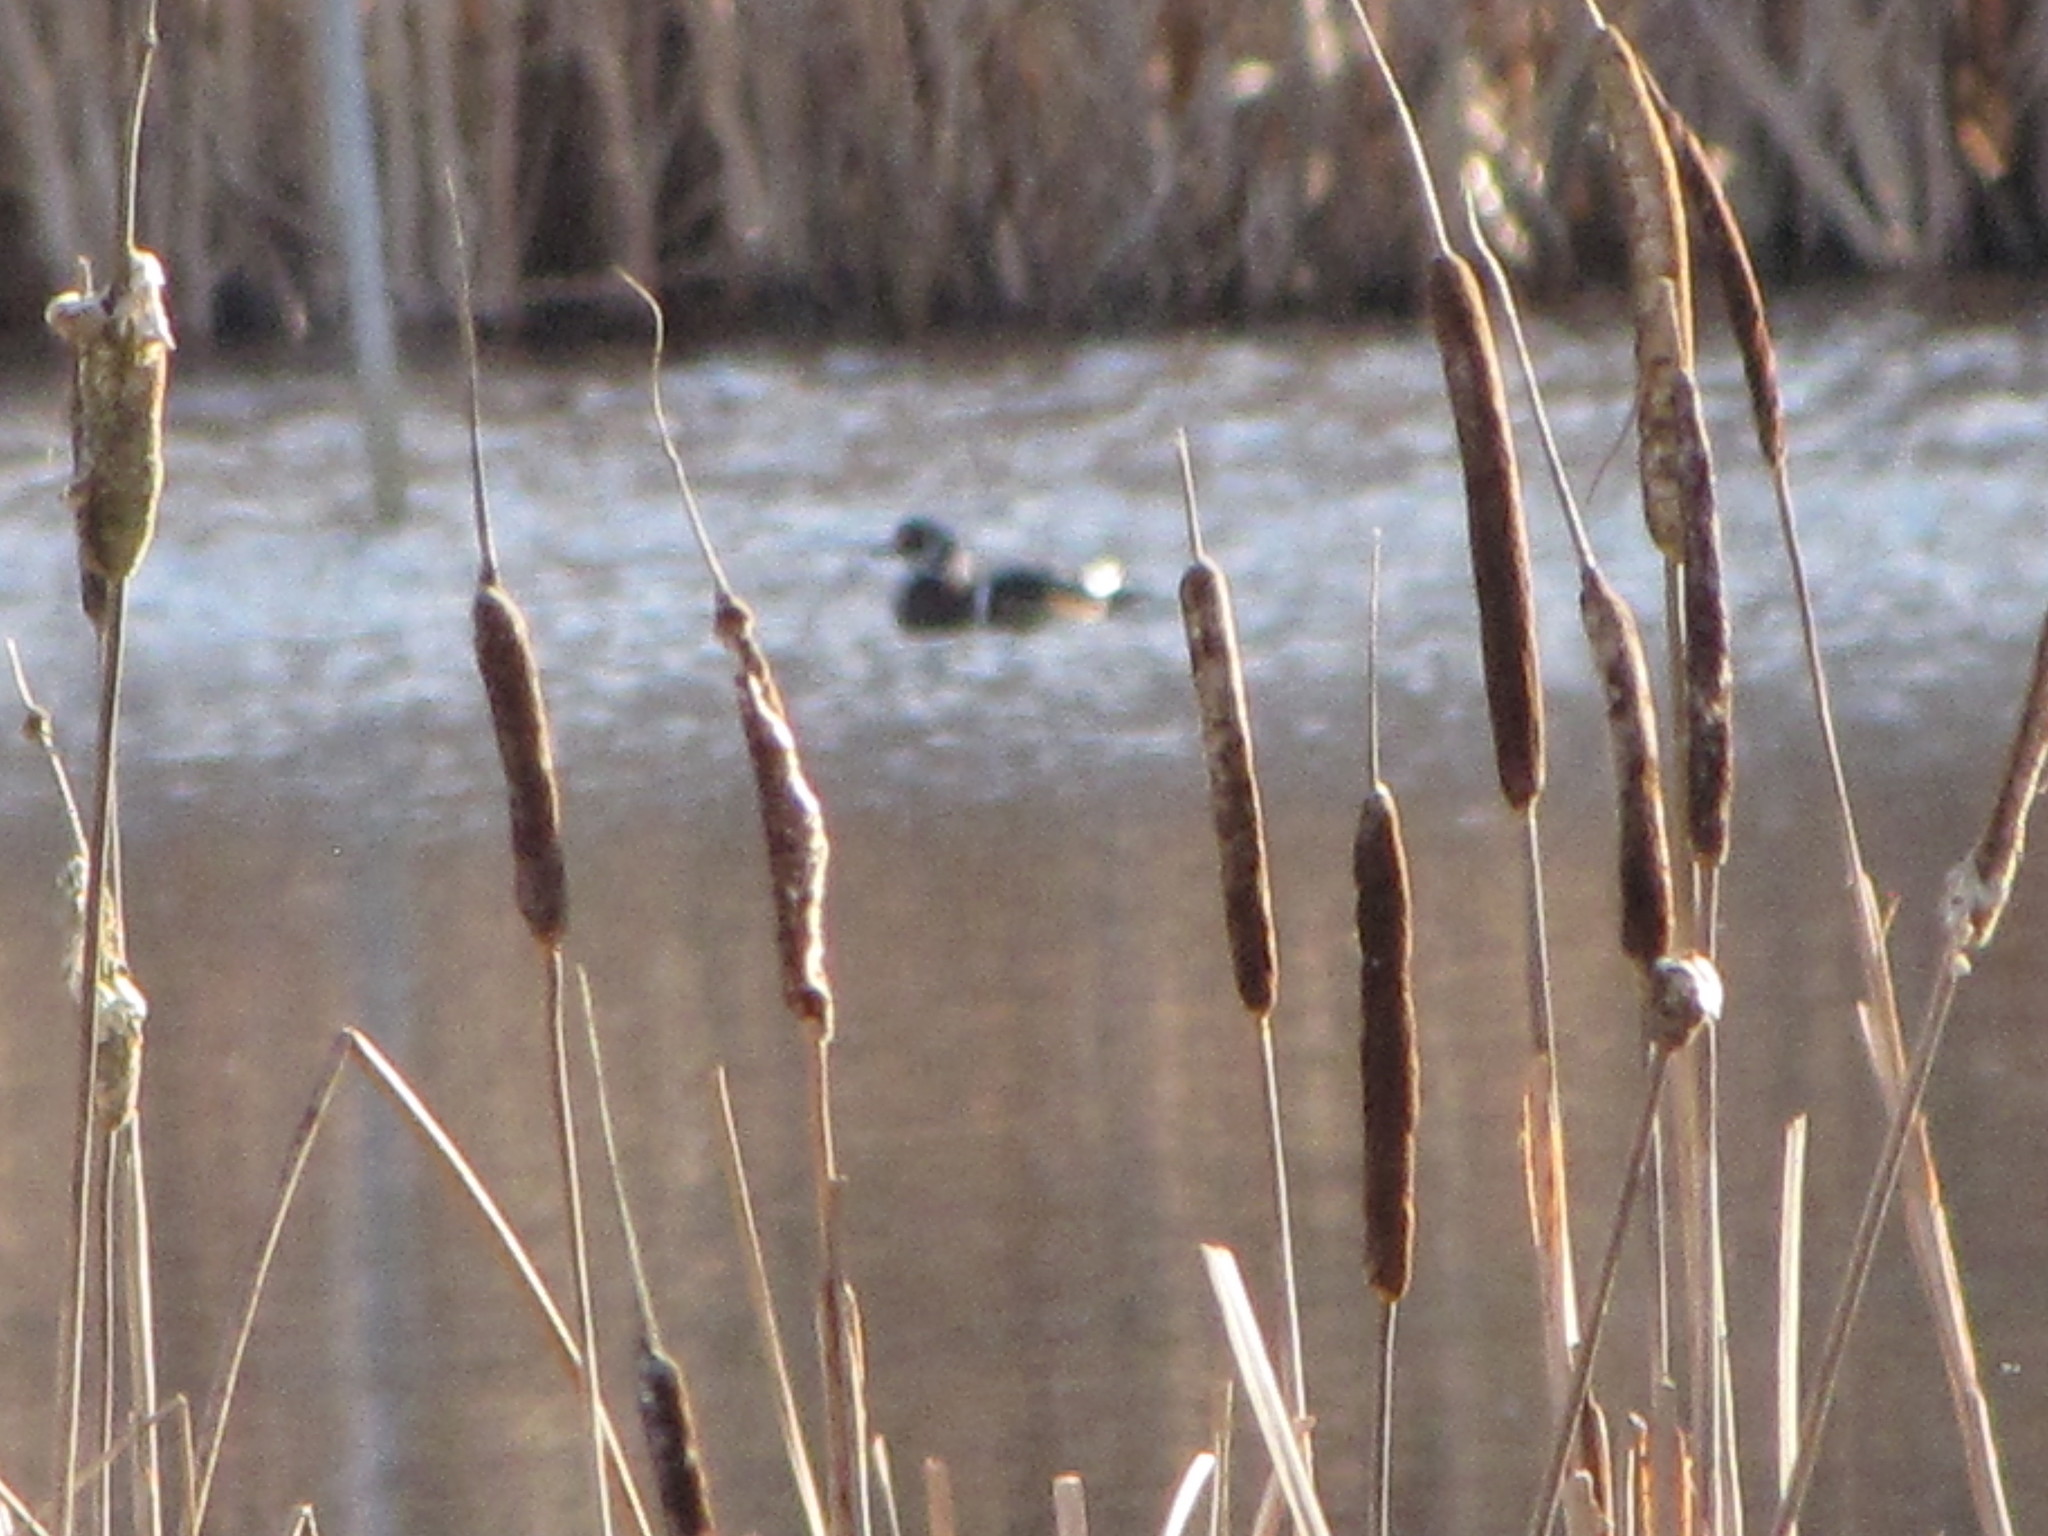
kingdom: Animalia
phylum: Chordata
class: Aves
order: Anseriformes
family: Anatidae
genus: Aix
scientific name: Aix sponsa
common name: Wood duck
